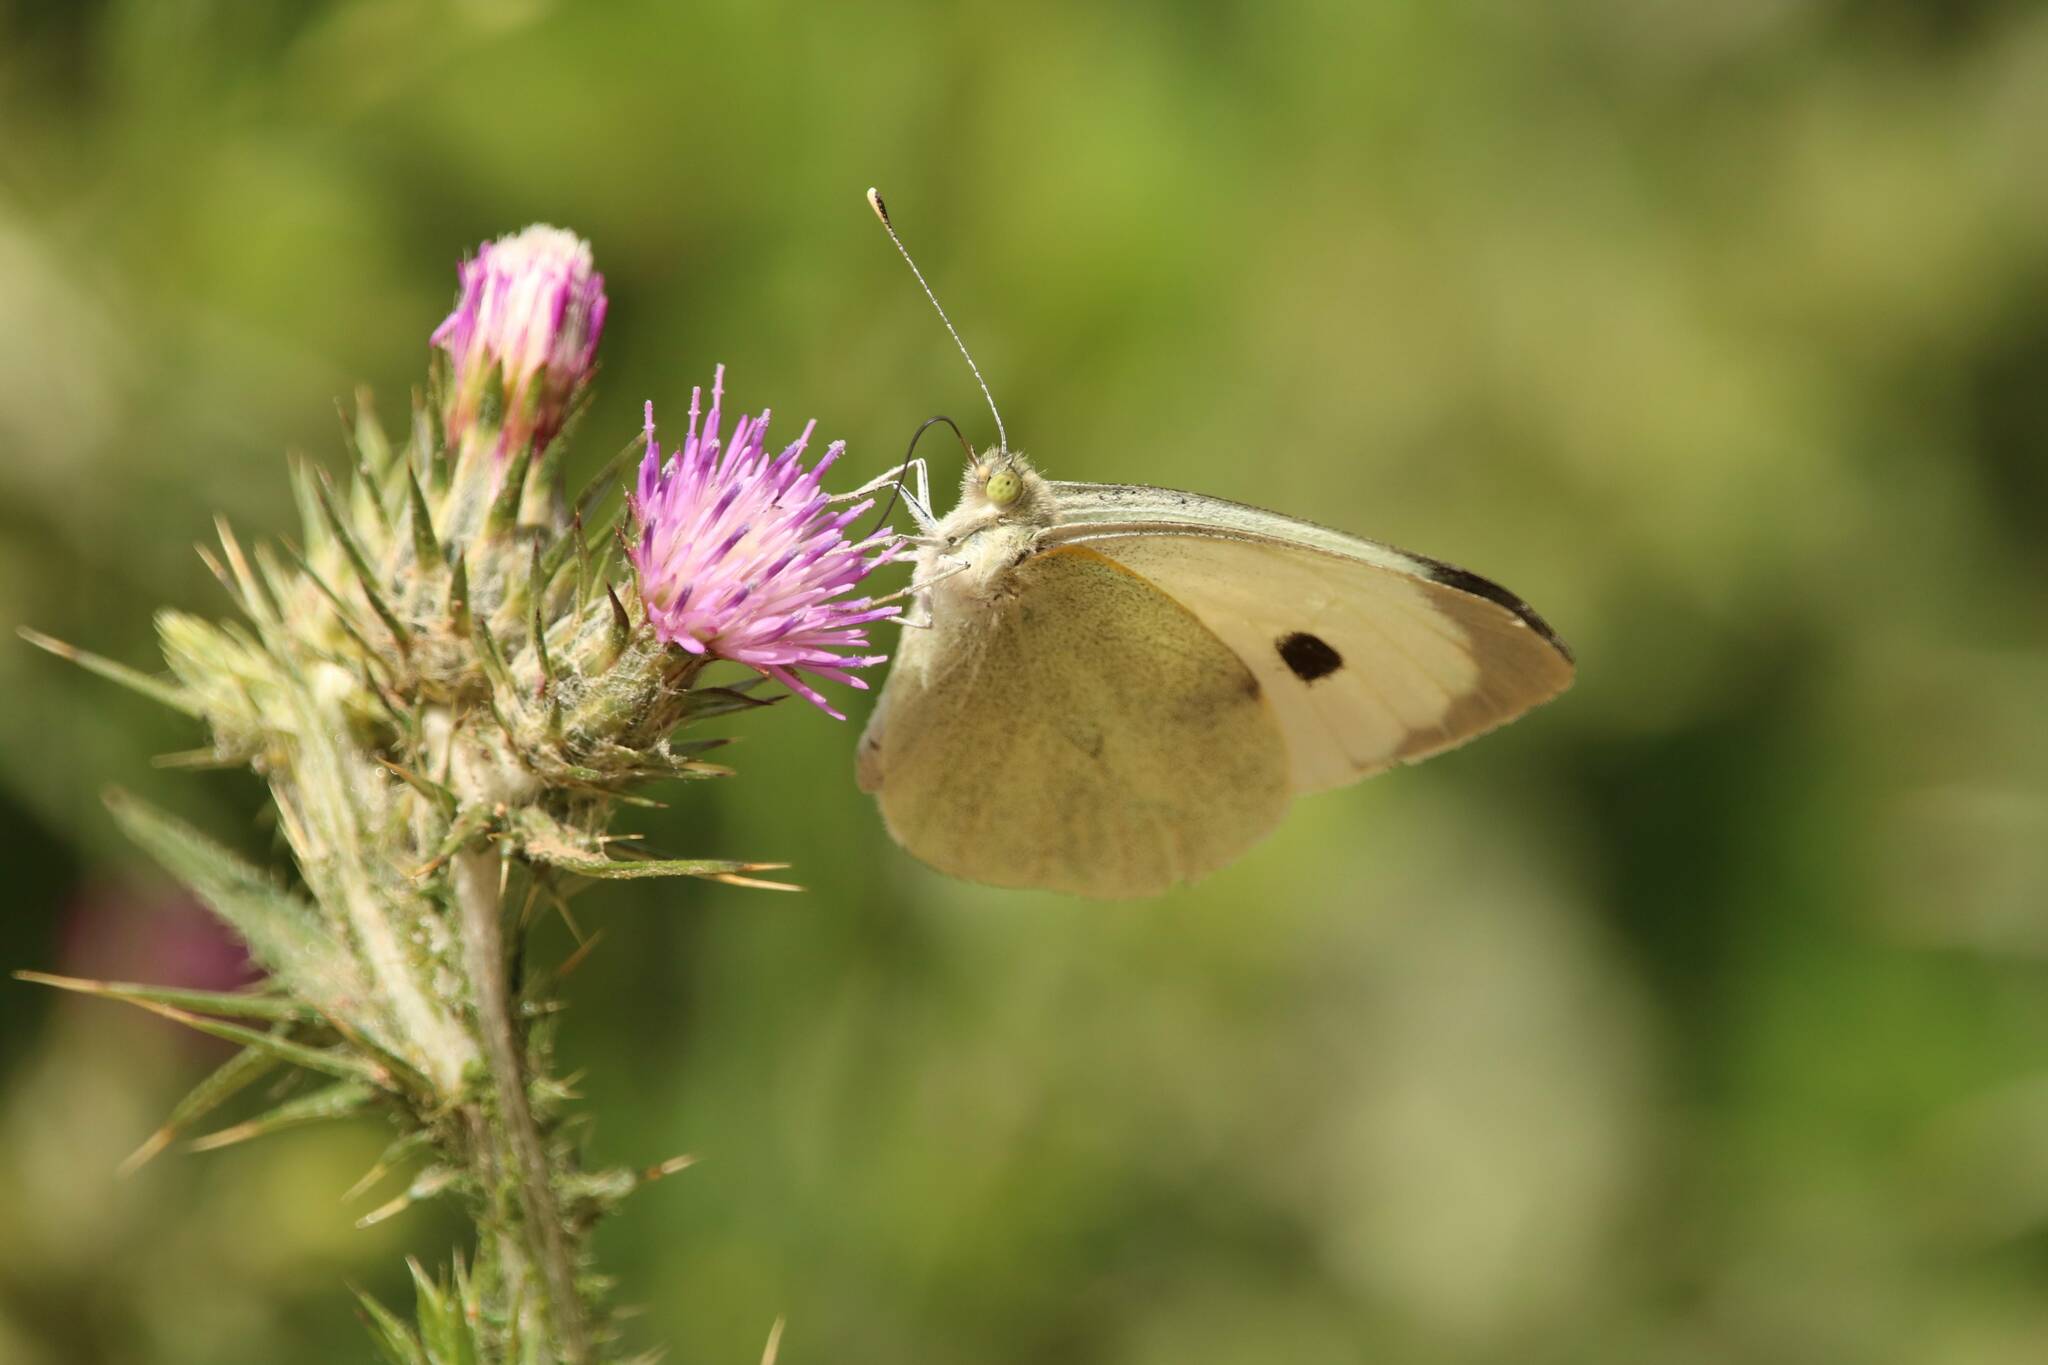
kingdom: Animalia
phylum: Arthropoda
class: Insecta
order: Lepidoptera
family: Pieridae
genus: Pieris
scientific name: Pieris brassicae
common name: Large white
